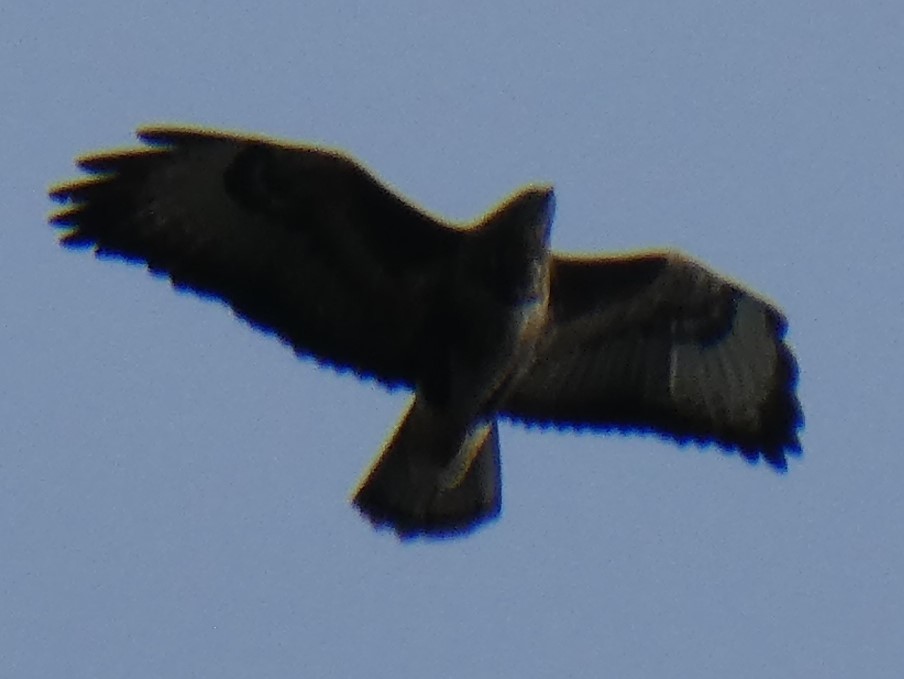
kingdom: Animalia
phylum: Chordata
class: Aves
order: Accipitriformes
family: Accipitridae
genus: Buteo
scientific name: Buteo buteo
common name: Common buzzard
